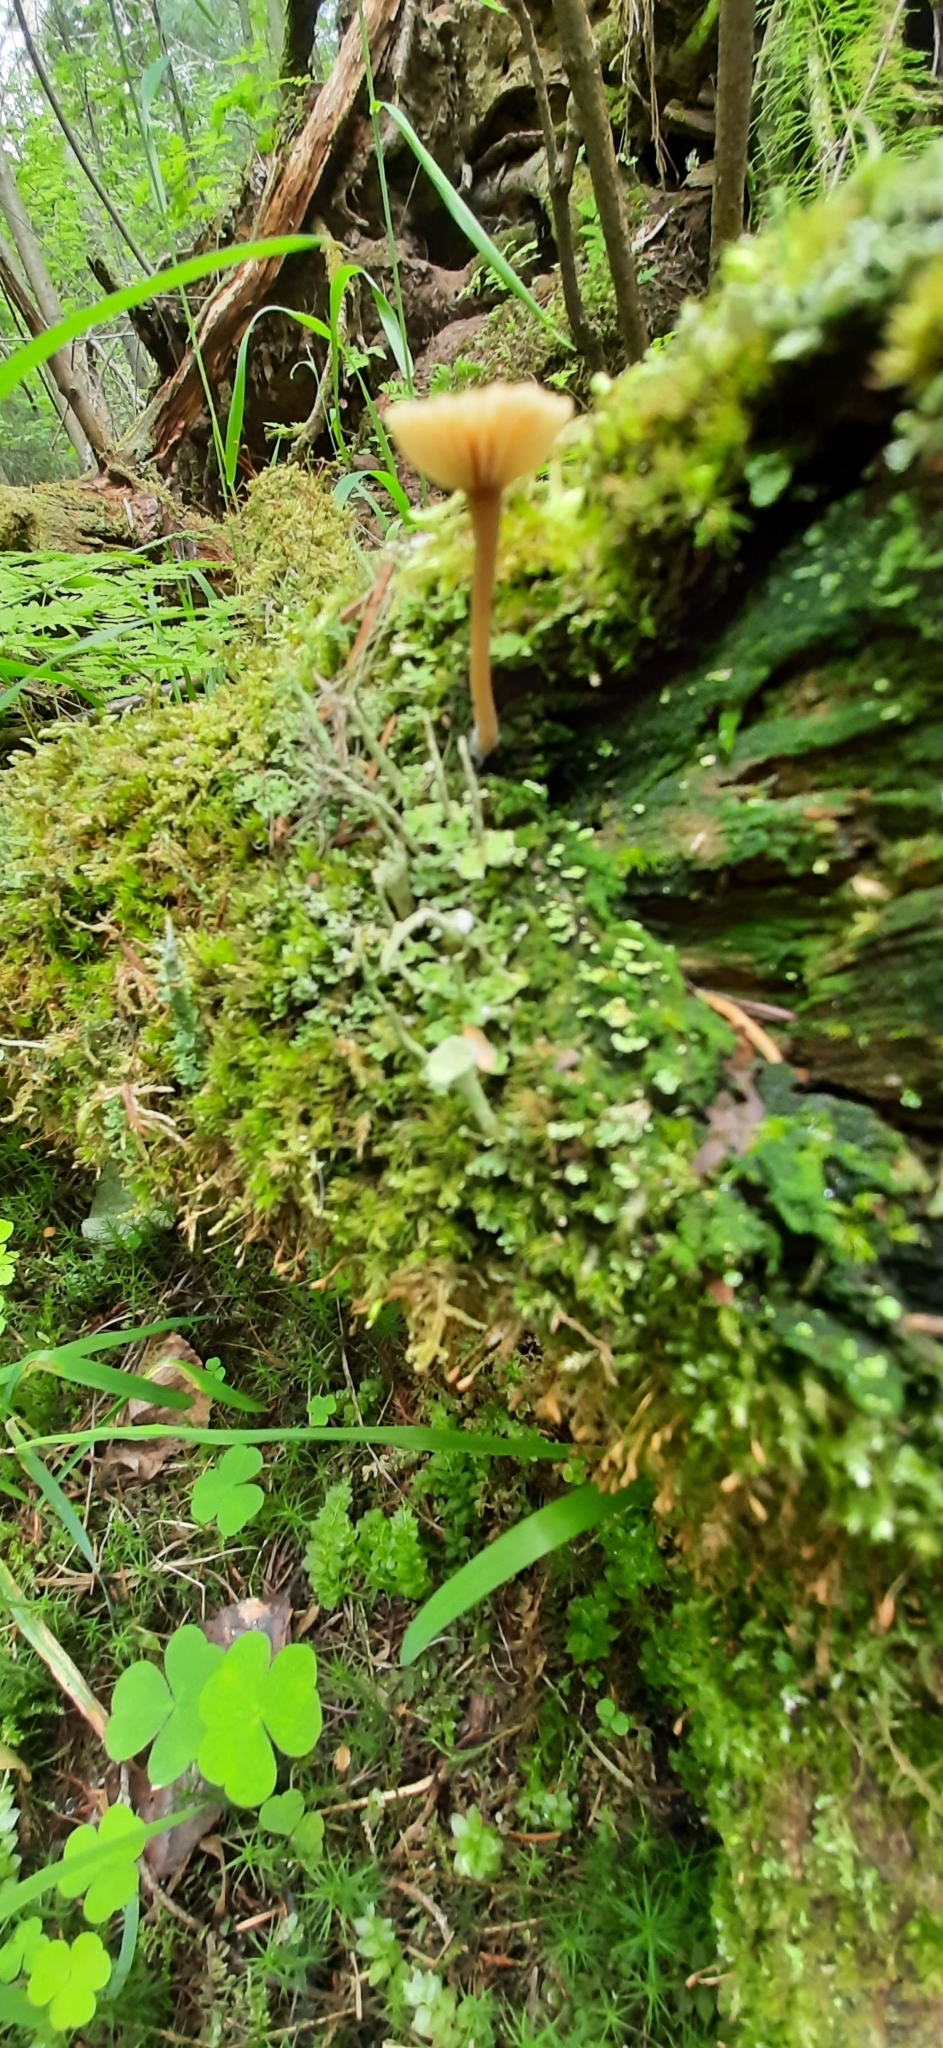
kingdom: Fungi
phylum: Basidiomycota
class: Agaricomycetes
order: Agaricales
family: Hygrophoraceae
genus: Lichenomphalia
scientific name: Lichenomphalia
